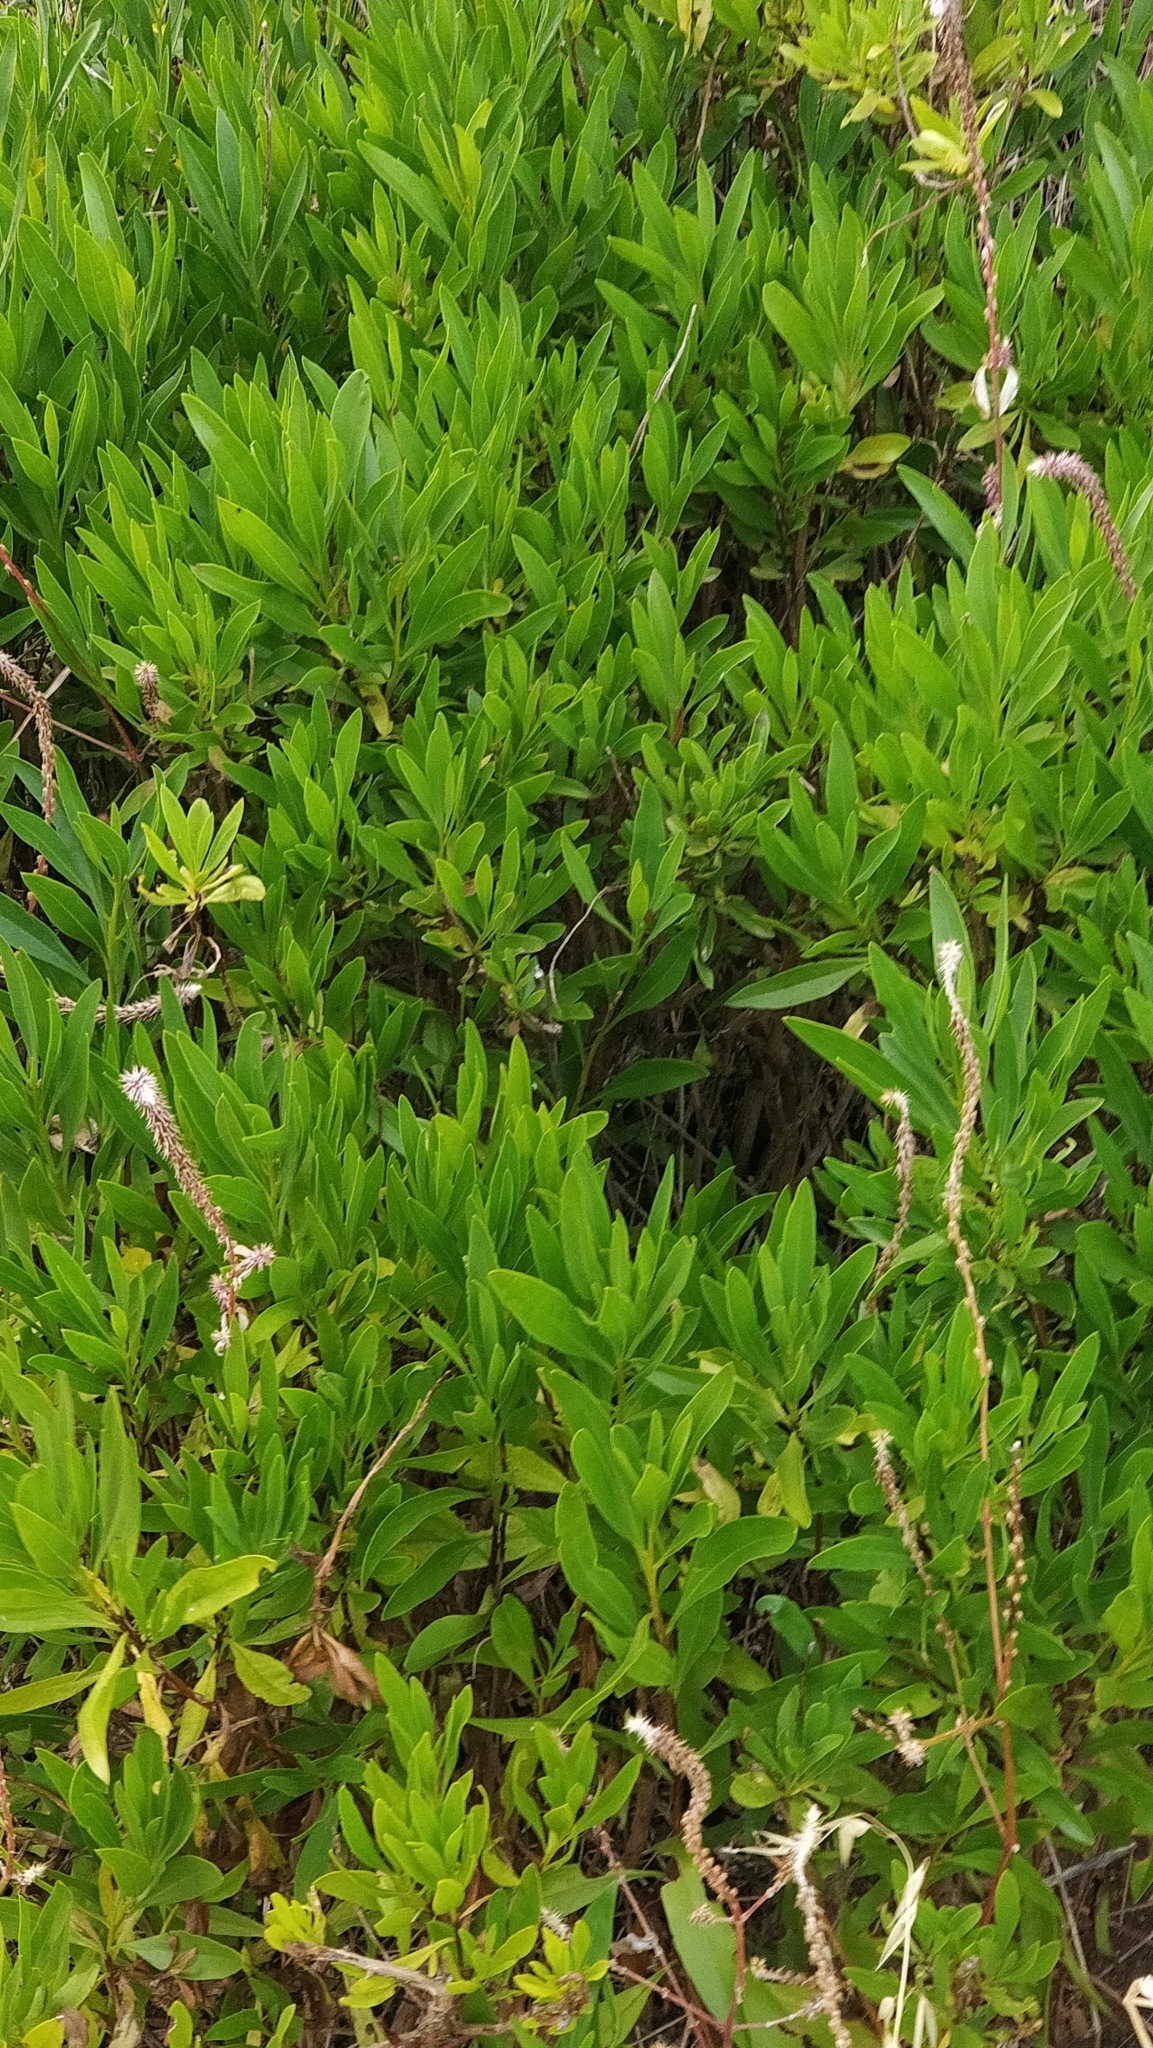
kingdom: Plantae
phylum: Tracheophyta
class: Magnoliopsida
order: Lamiales
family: Plantaginaceae
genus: Globularia
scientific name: Globularia salicina
